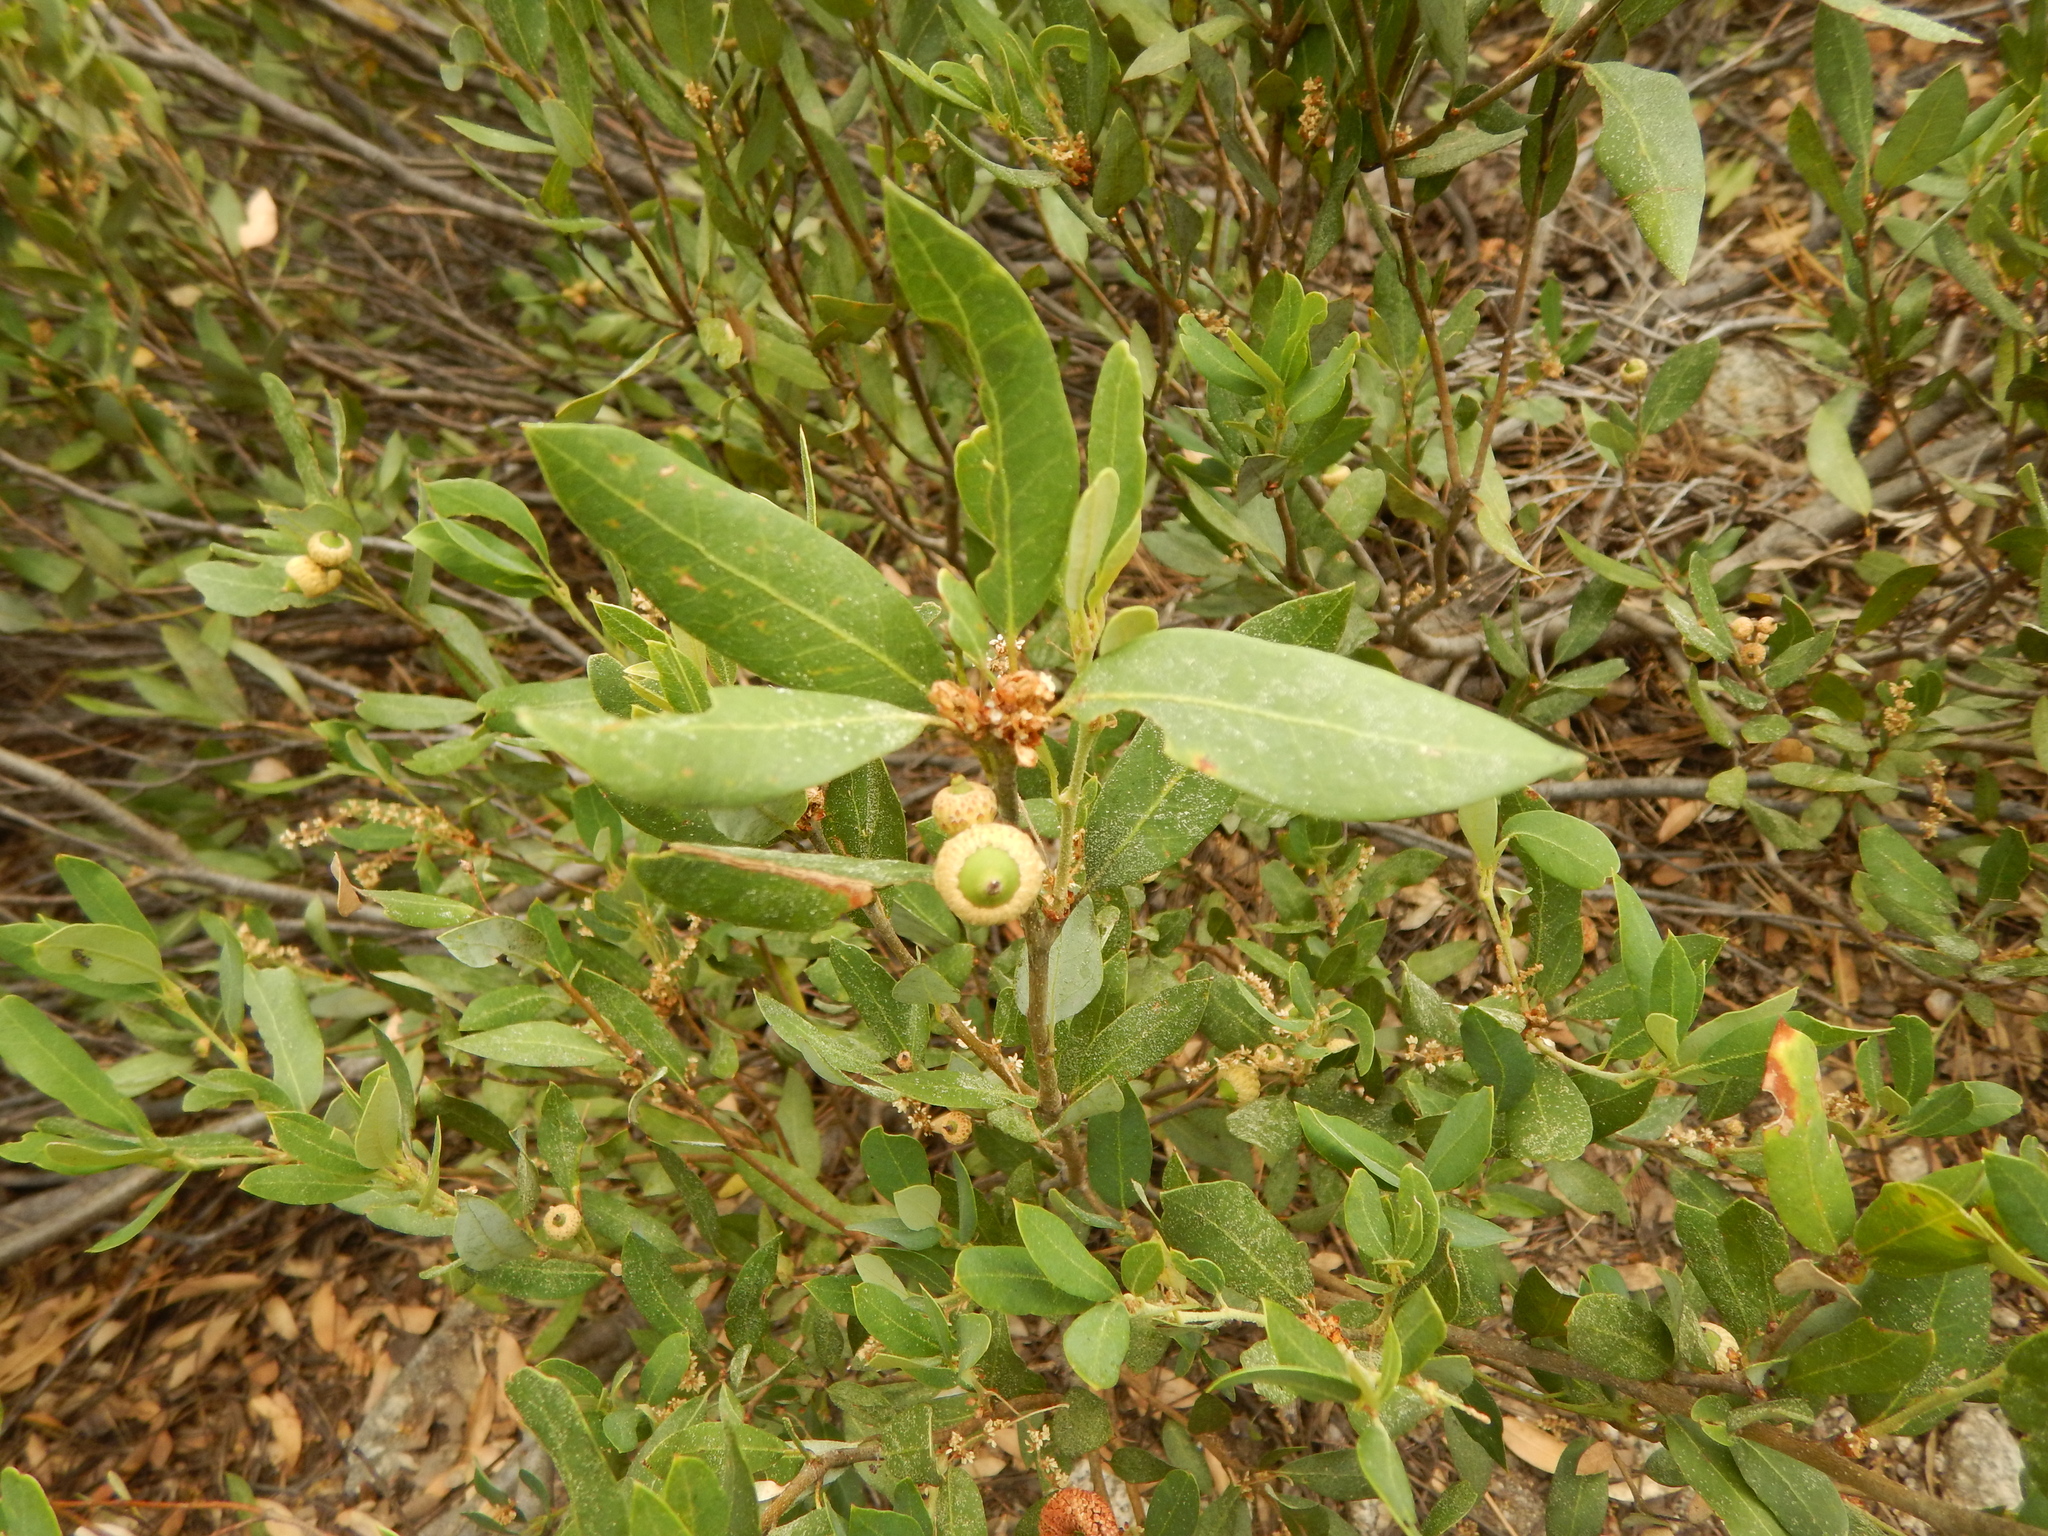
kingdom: Plantae
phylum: Tracheophyta
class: Magnoliopsida
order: Fagales
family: Fagaceae
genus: Quercus
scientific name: Quercus vacciniifolia
